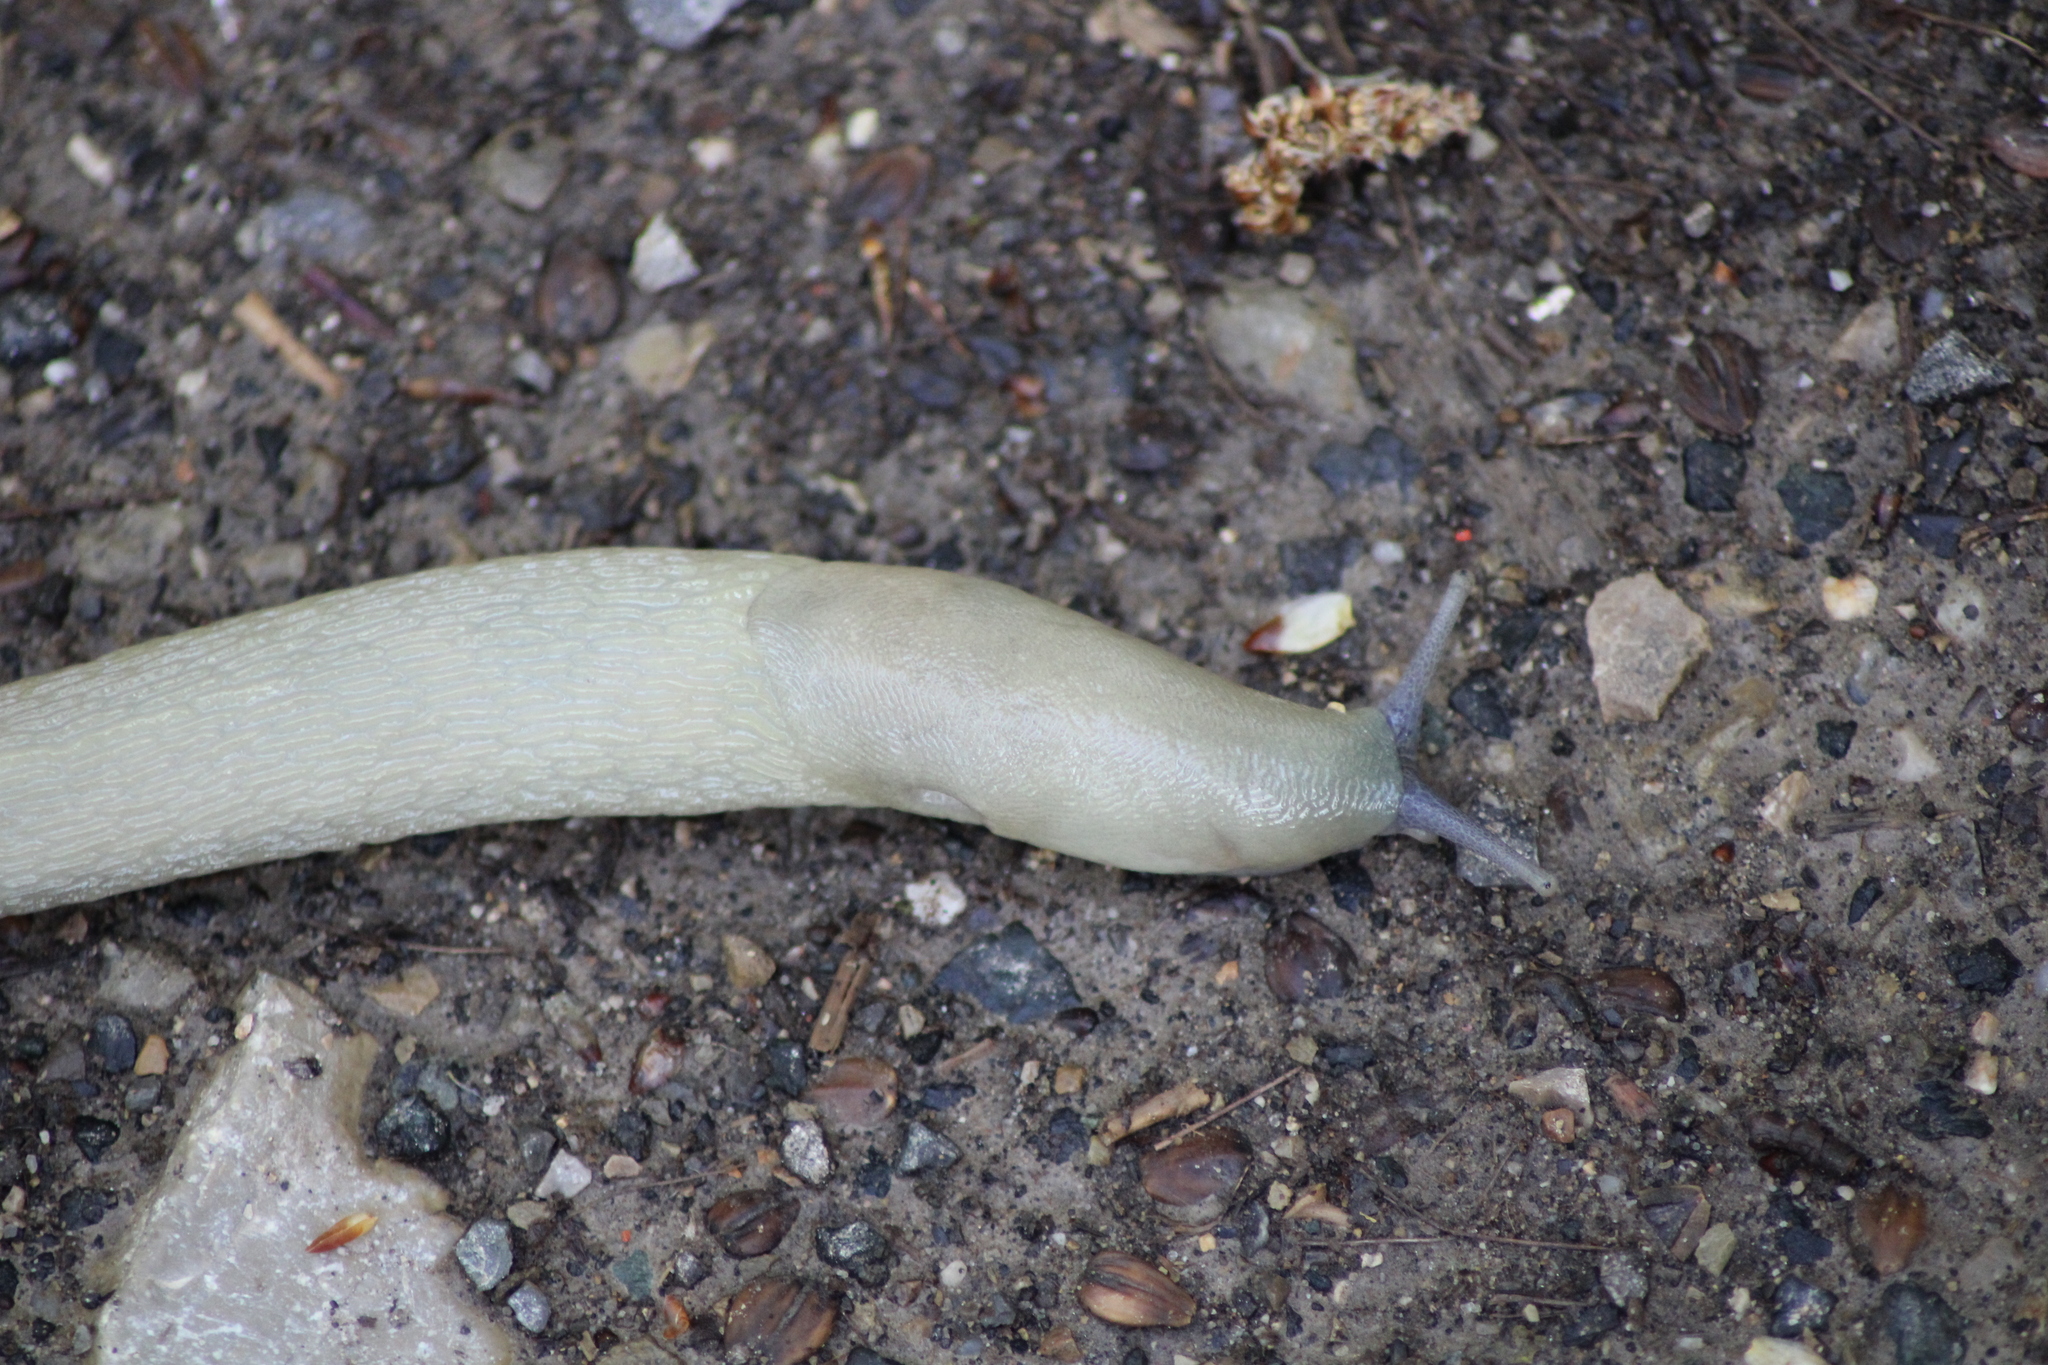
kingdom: Animalia
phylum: Mollusca
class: Gastropoda
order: Stylommatophora
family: Limacidae
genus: Limax
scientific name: Limax cinereoniger
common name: Ash-black slug
